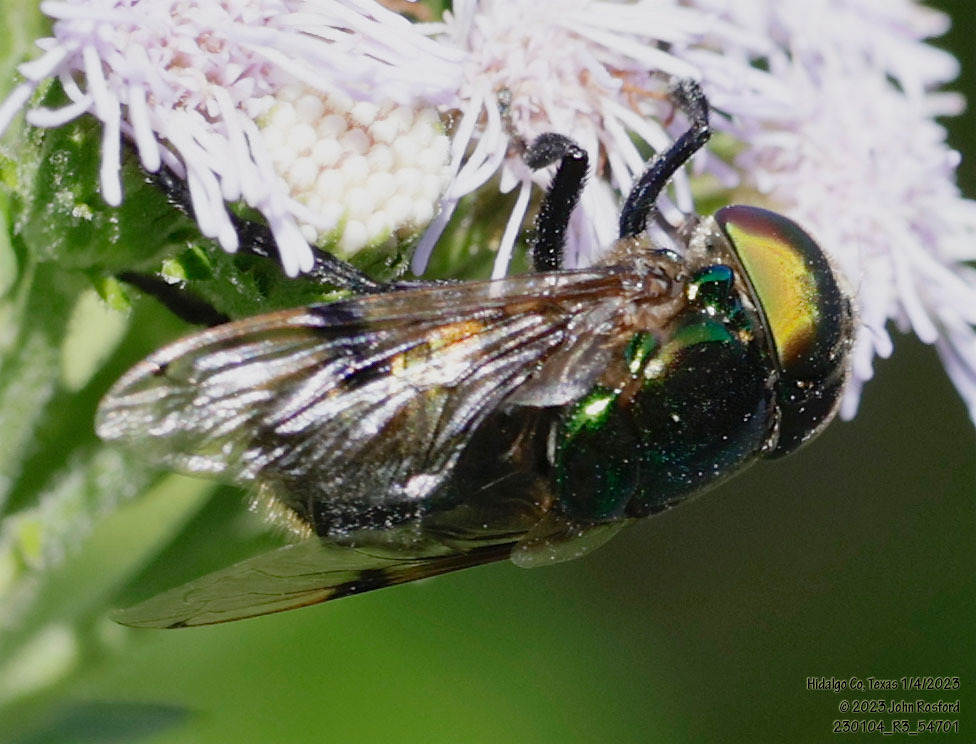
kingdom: Animalia
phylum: Arthropoda
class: Insecta
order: Diptera
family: Syrphidae
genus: Ornidia
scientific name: Ornidia obesa
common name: Syrphid fly
